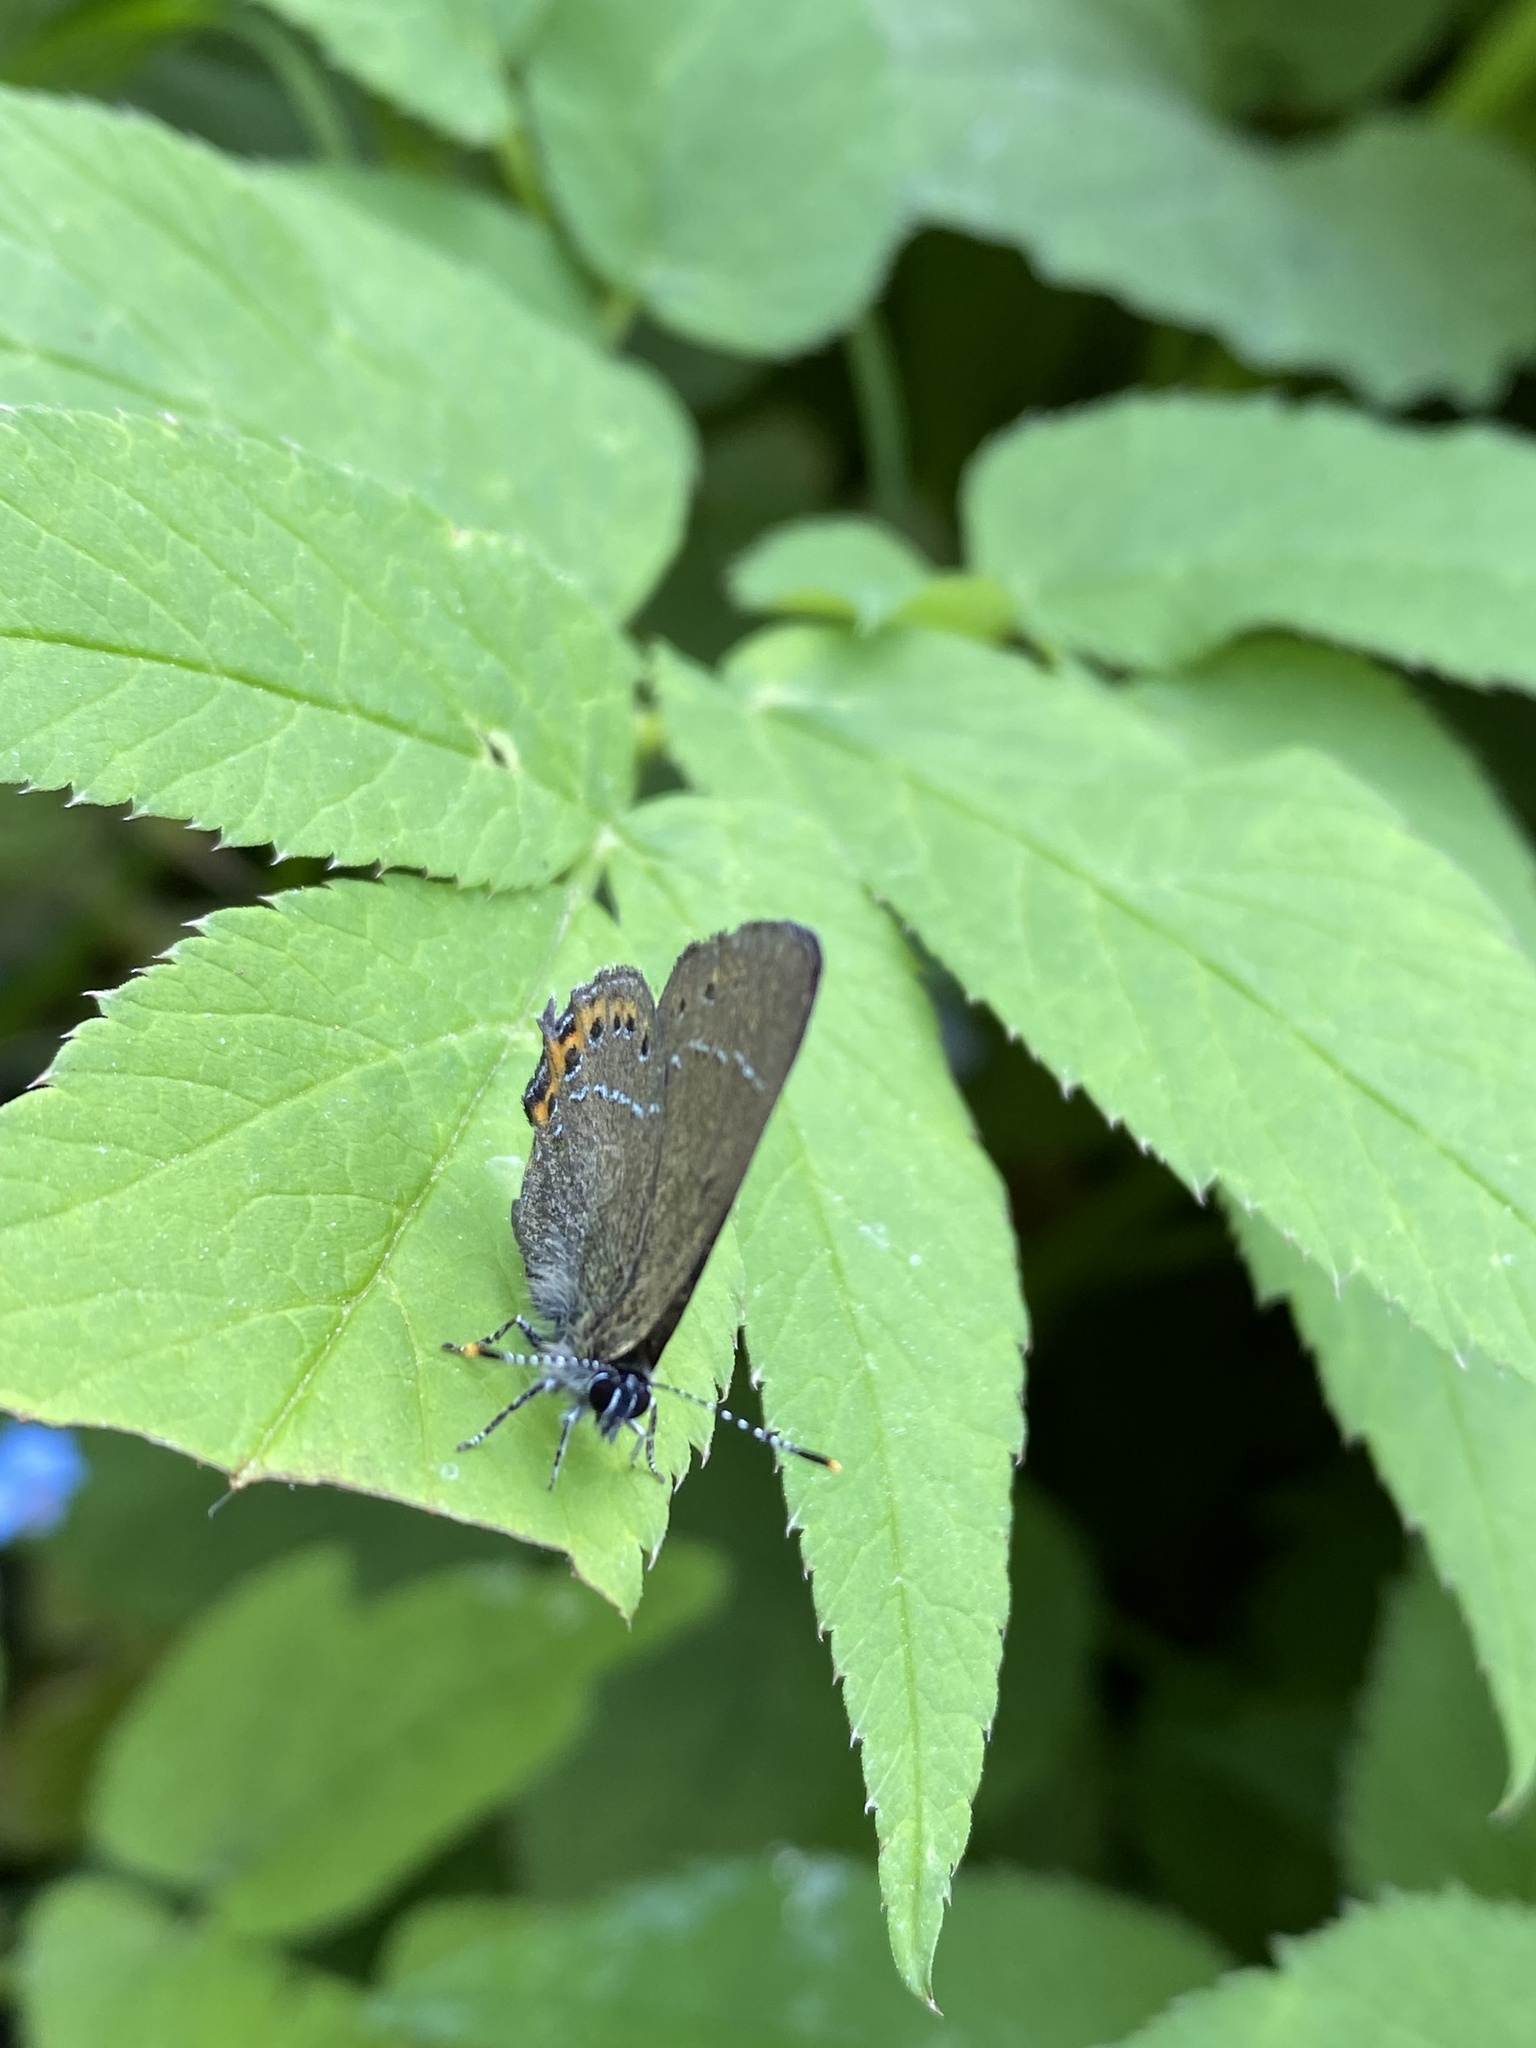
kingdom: Animalia
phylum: Arthropoda
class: Insecta
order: Lepidoptera
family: Lycaenidae
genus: Fixsenia
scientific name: Fixsenia pruni
